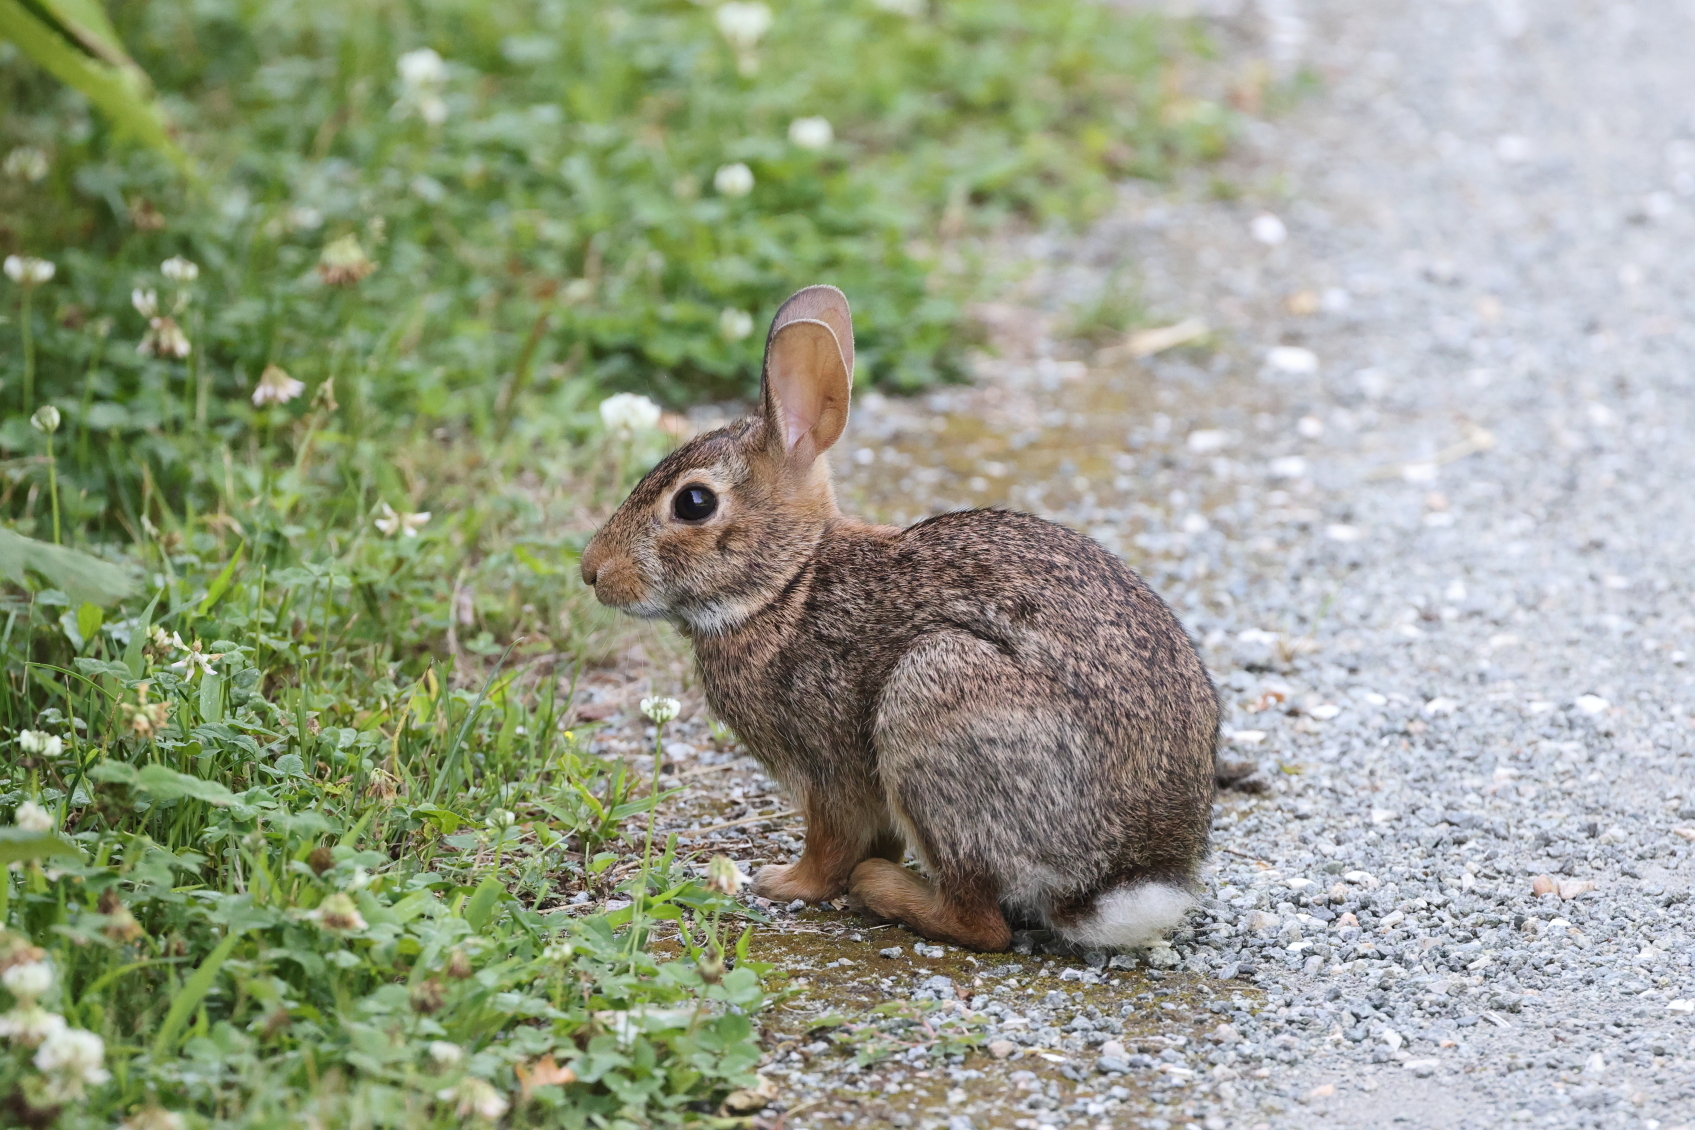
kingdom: Animalia
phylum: Chordata
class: Mammalia
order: Lagomorpha
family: Leporidae
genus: Sylvilagus
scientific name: Sylvilagus floridanus
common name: Eastern cottontail
